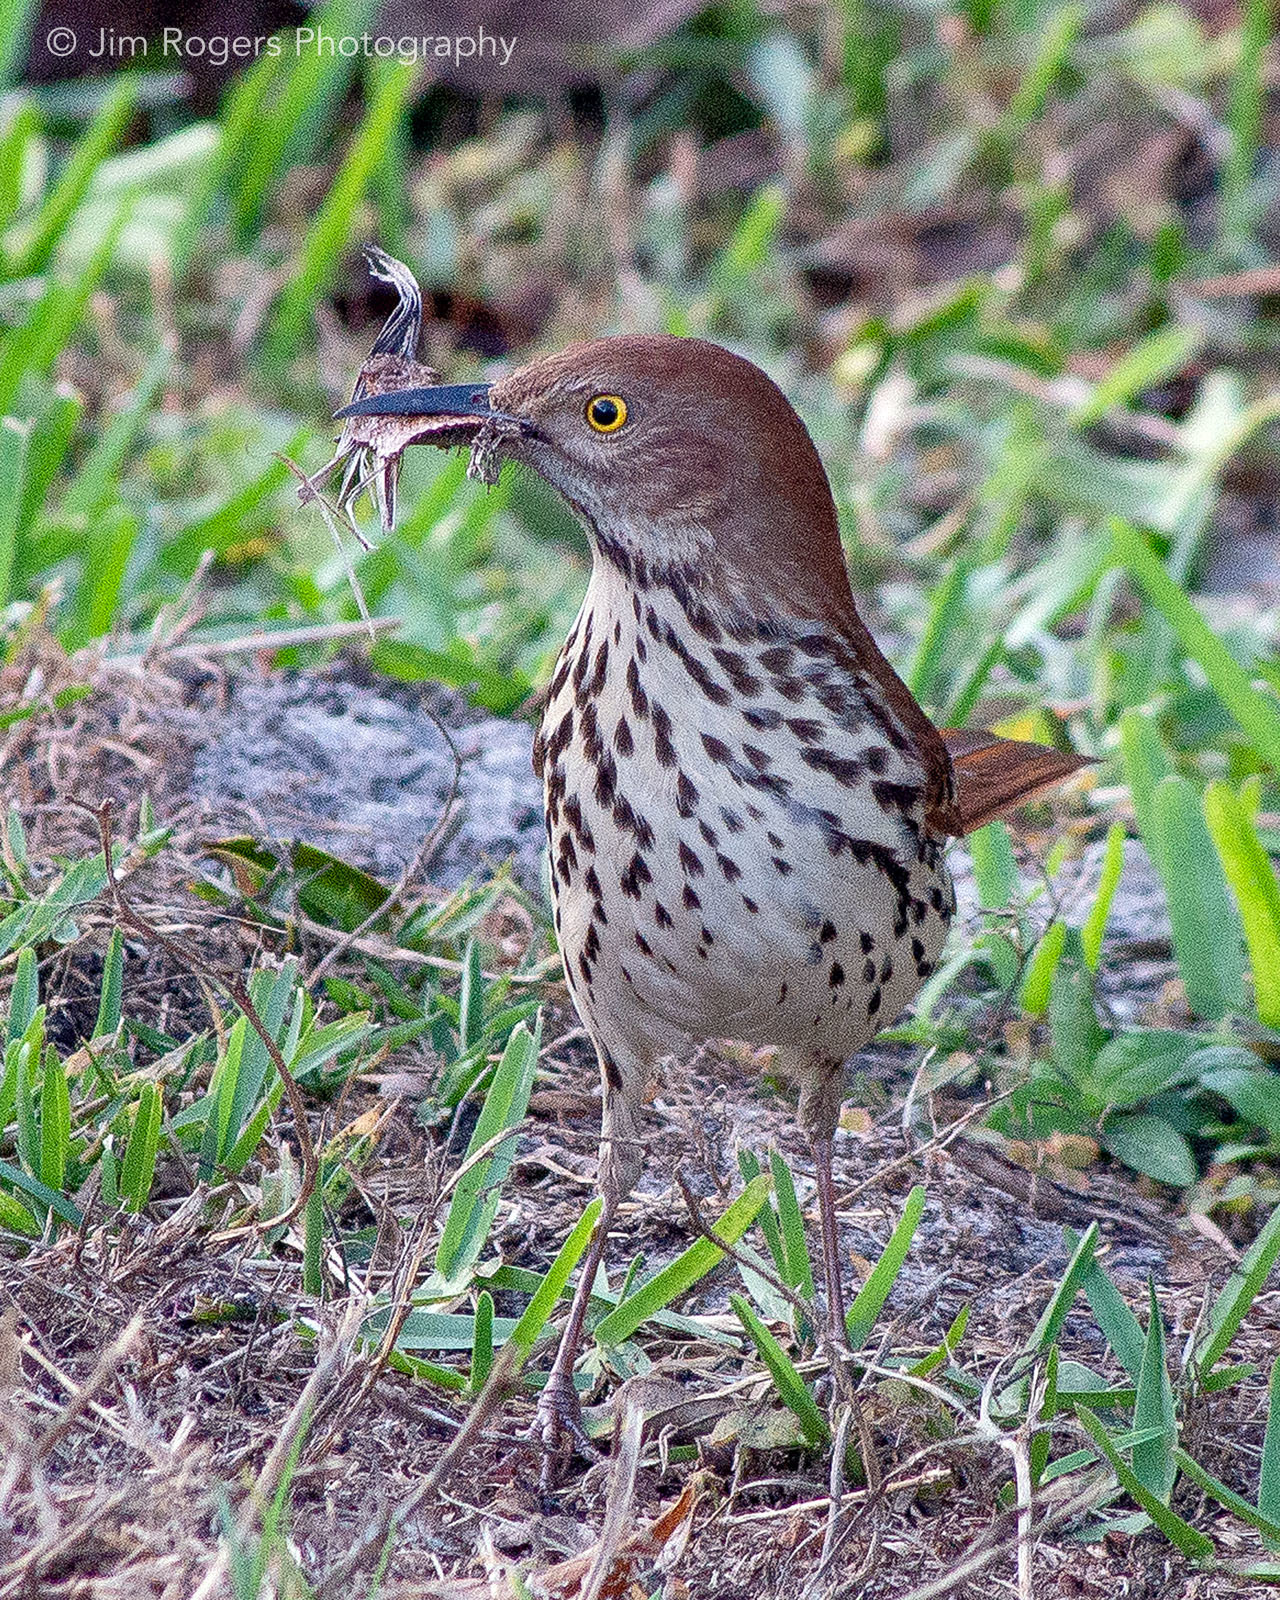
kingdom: Animalia
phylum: Chordata
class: Aves
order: Passeriformes
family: Mimidae
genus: Toxostoma
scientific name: Toxostoma rufum
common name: Brown thrasher
